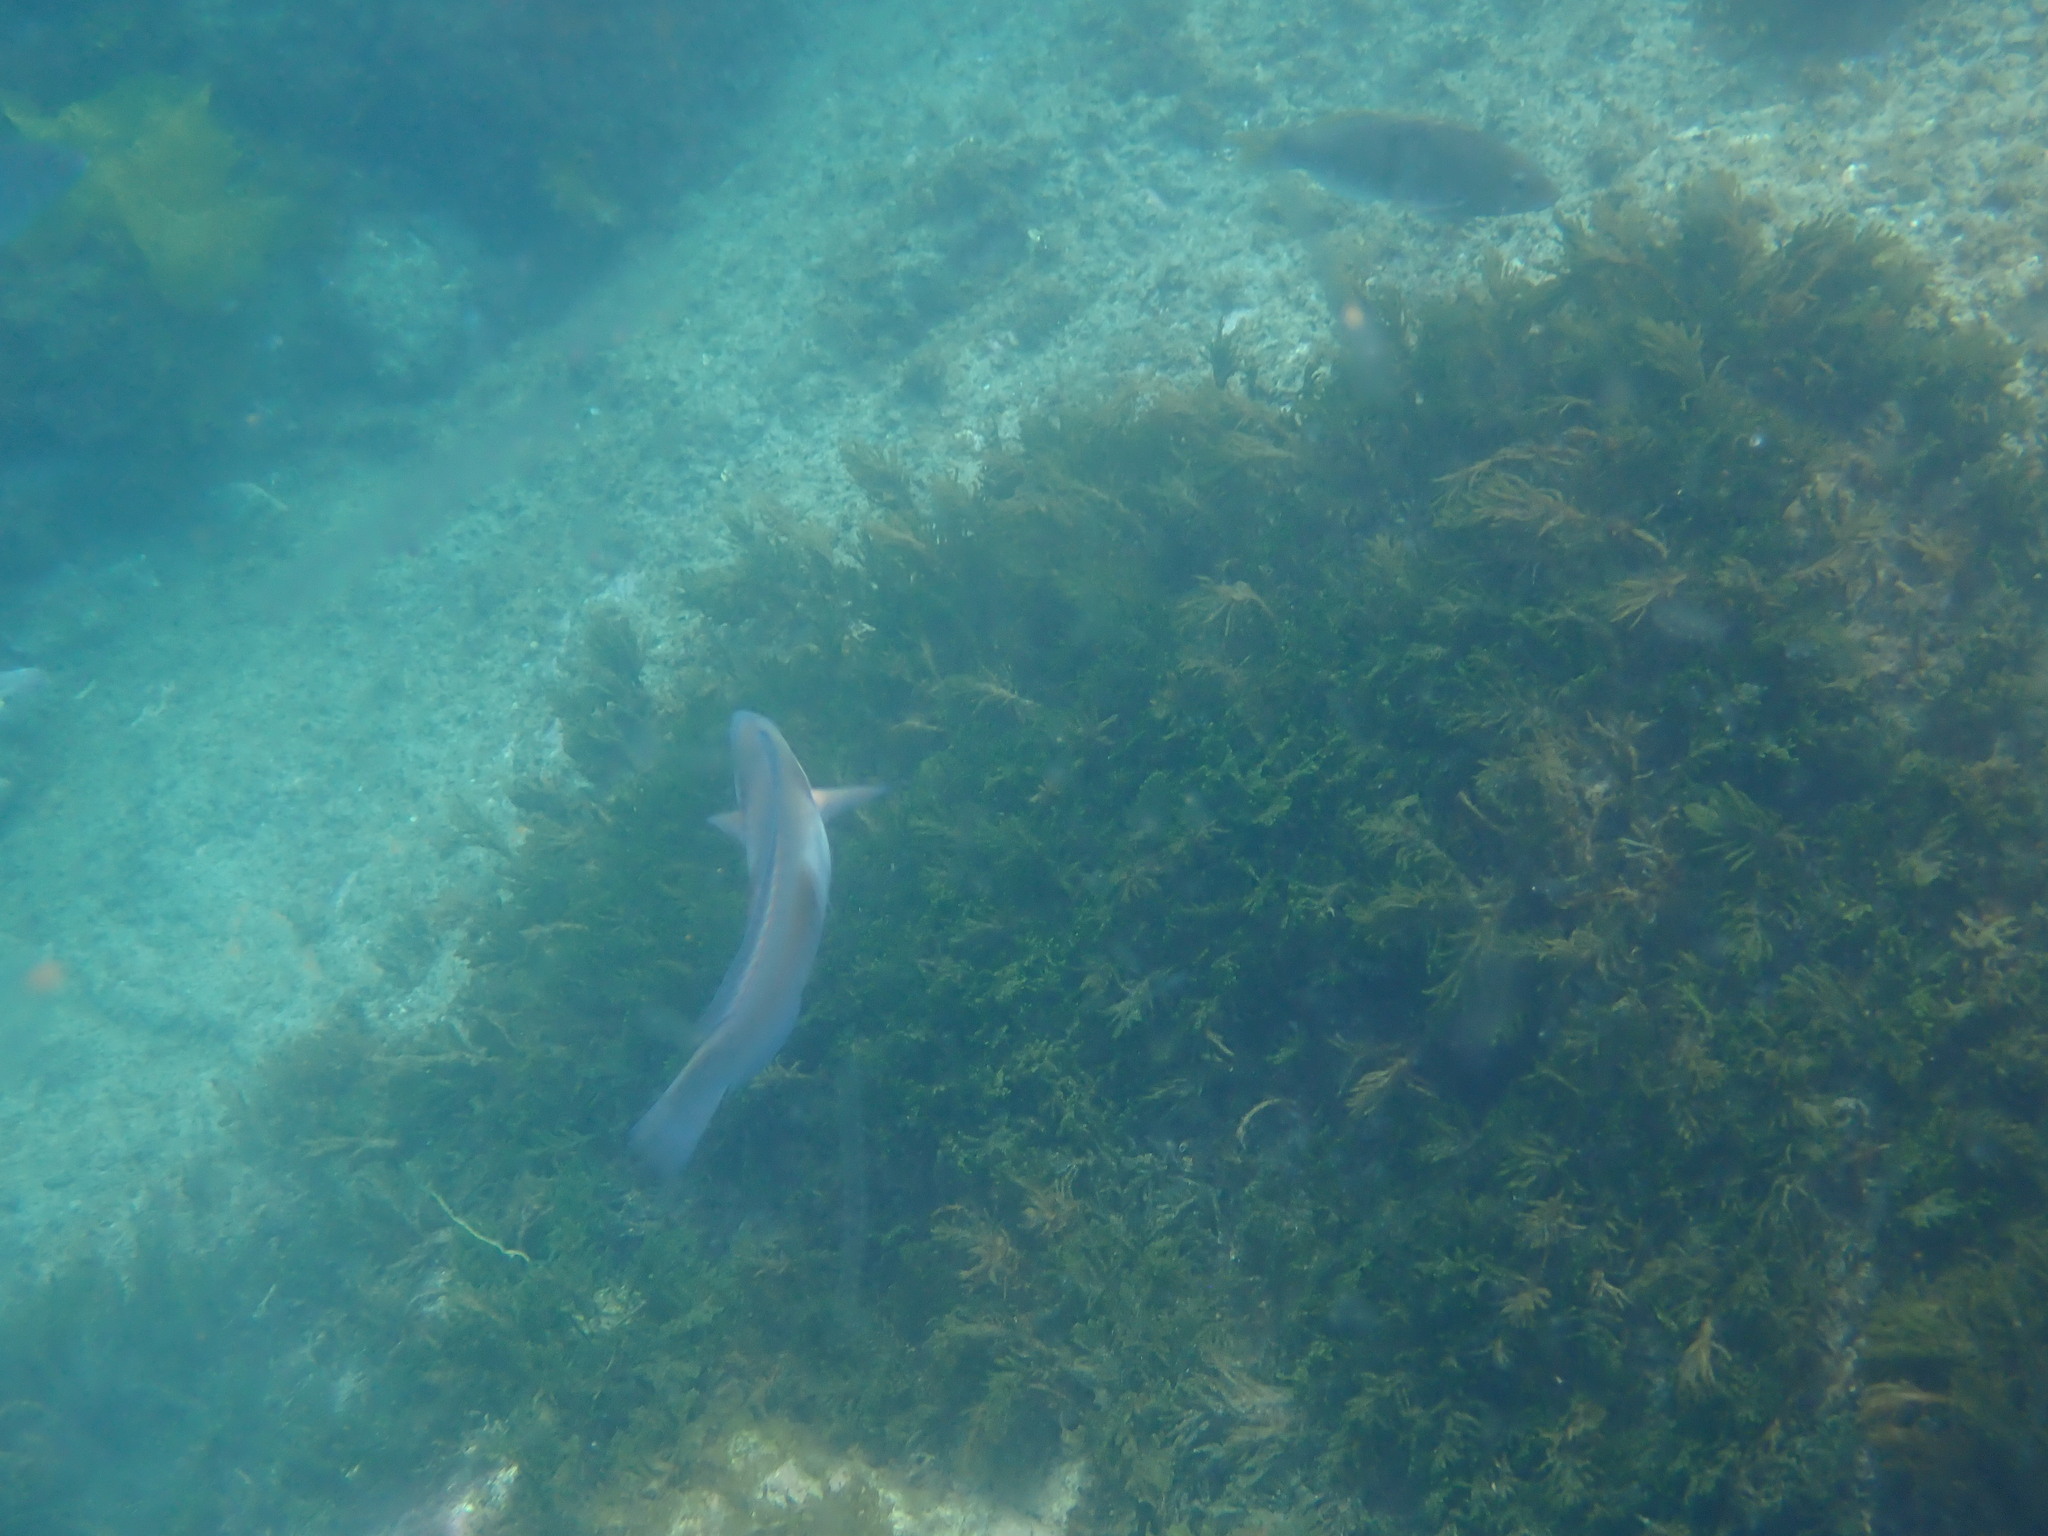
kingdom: Animalia
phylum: Chordata
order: Perciformes
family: Labridae
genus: Coris
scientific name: Coris sandeyeri
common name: Sandager's wrasse
